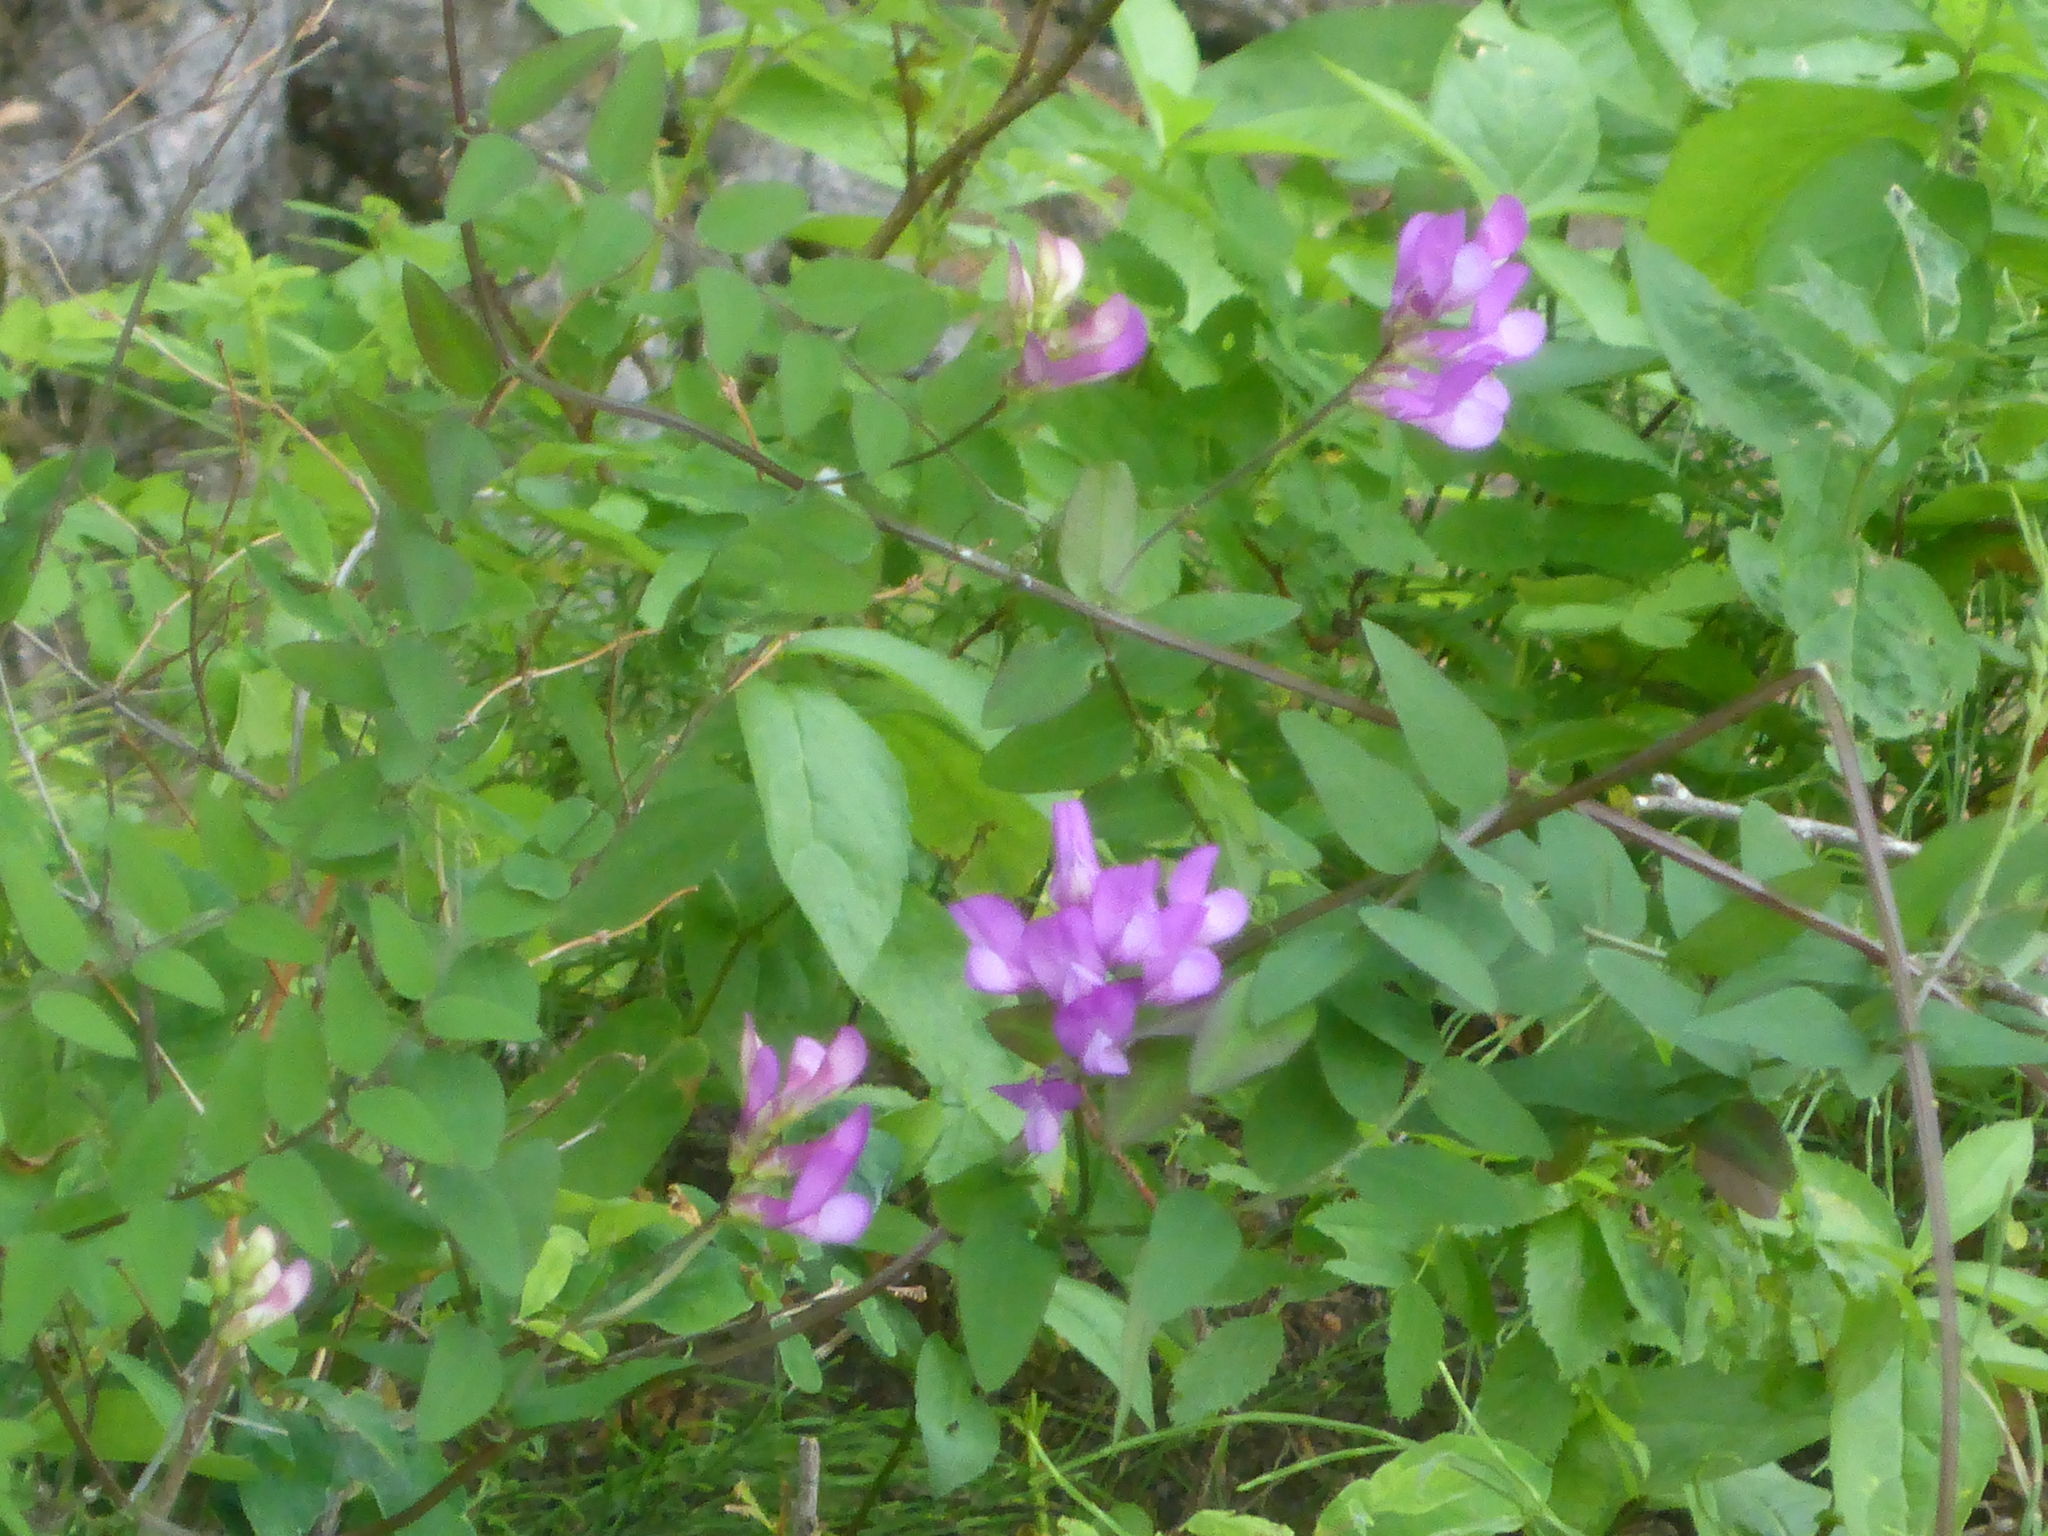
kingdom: Plantae
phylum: Tracheophyta
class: Magnoliopsida
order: Fabales
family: Fabaceae
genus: Vicia
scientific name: Vicia americana
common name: American vetch
